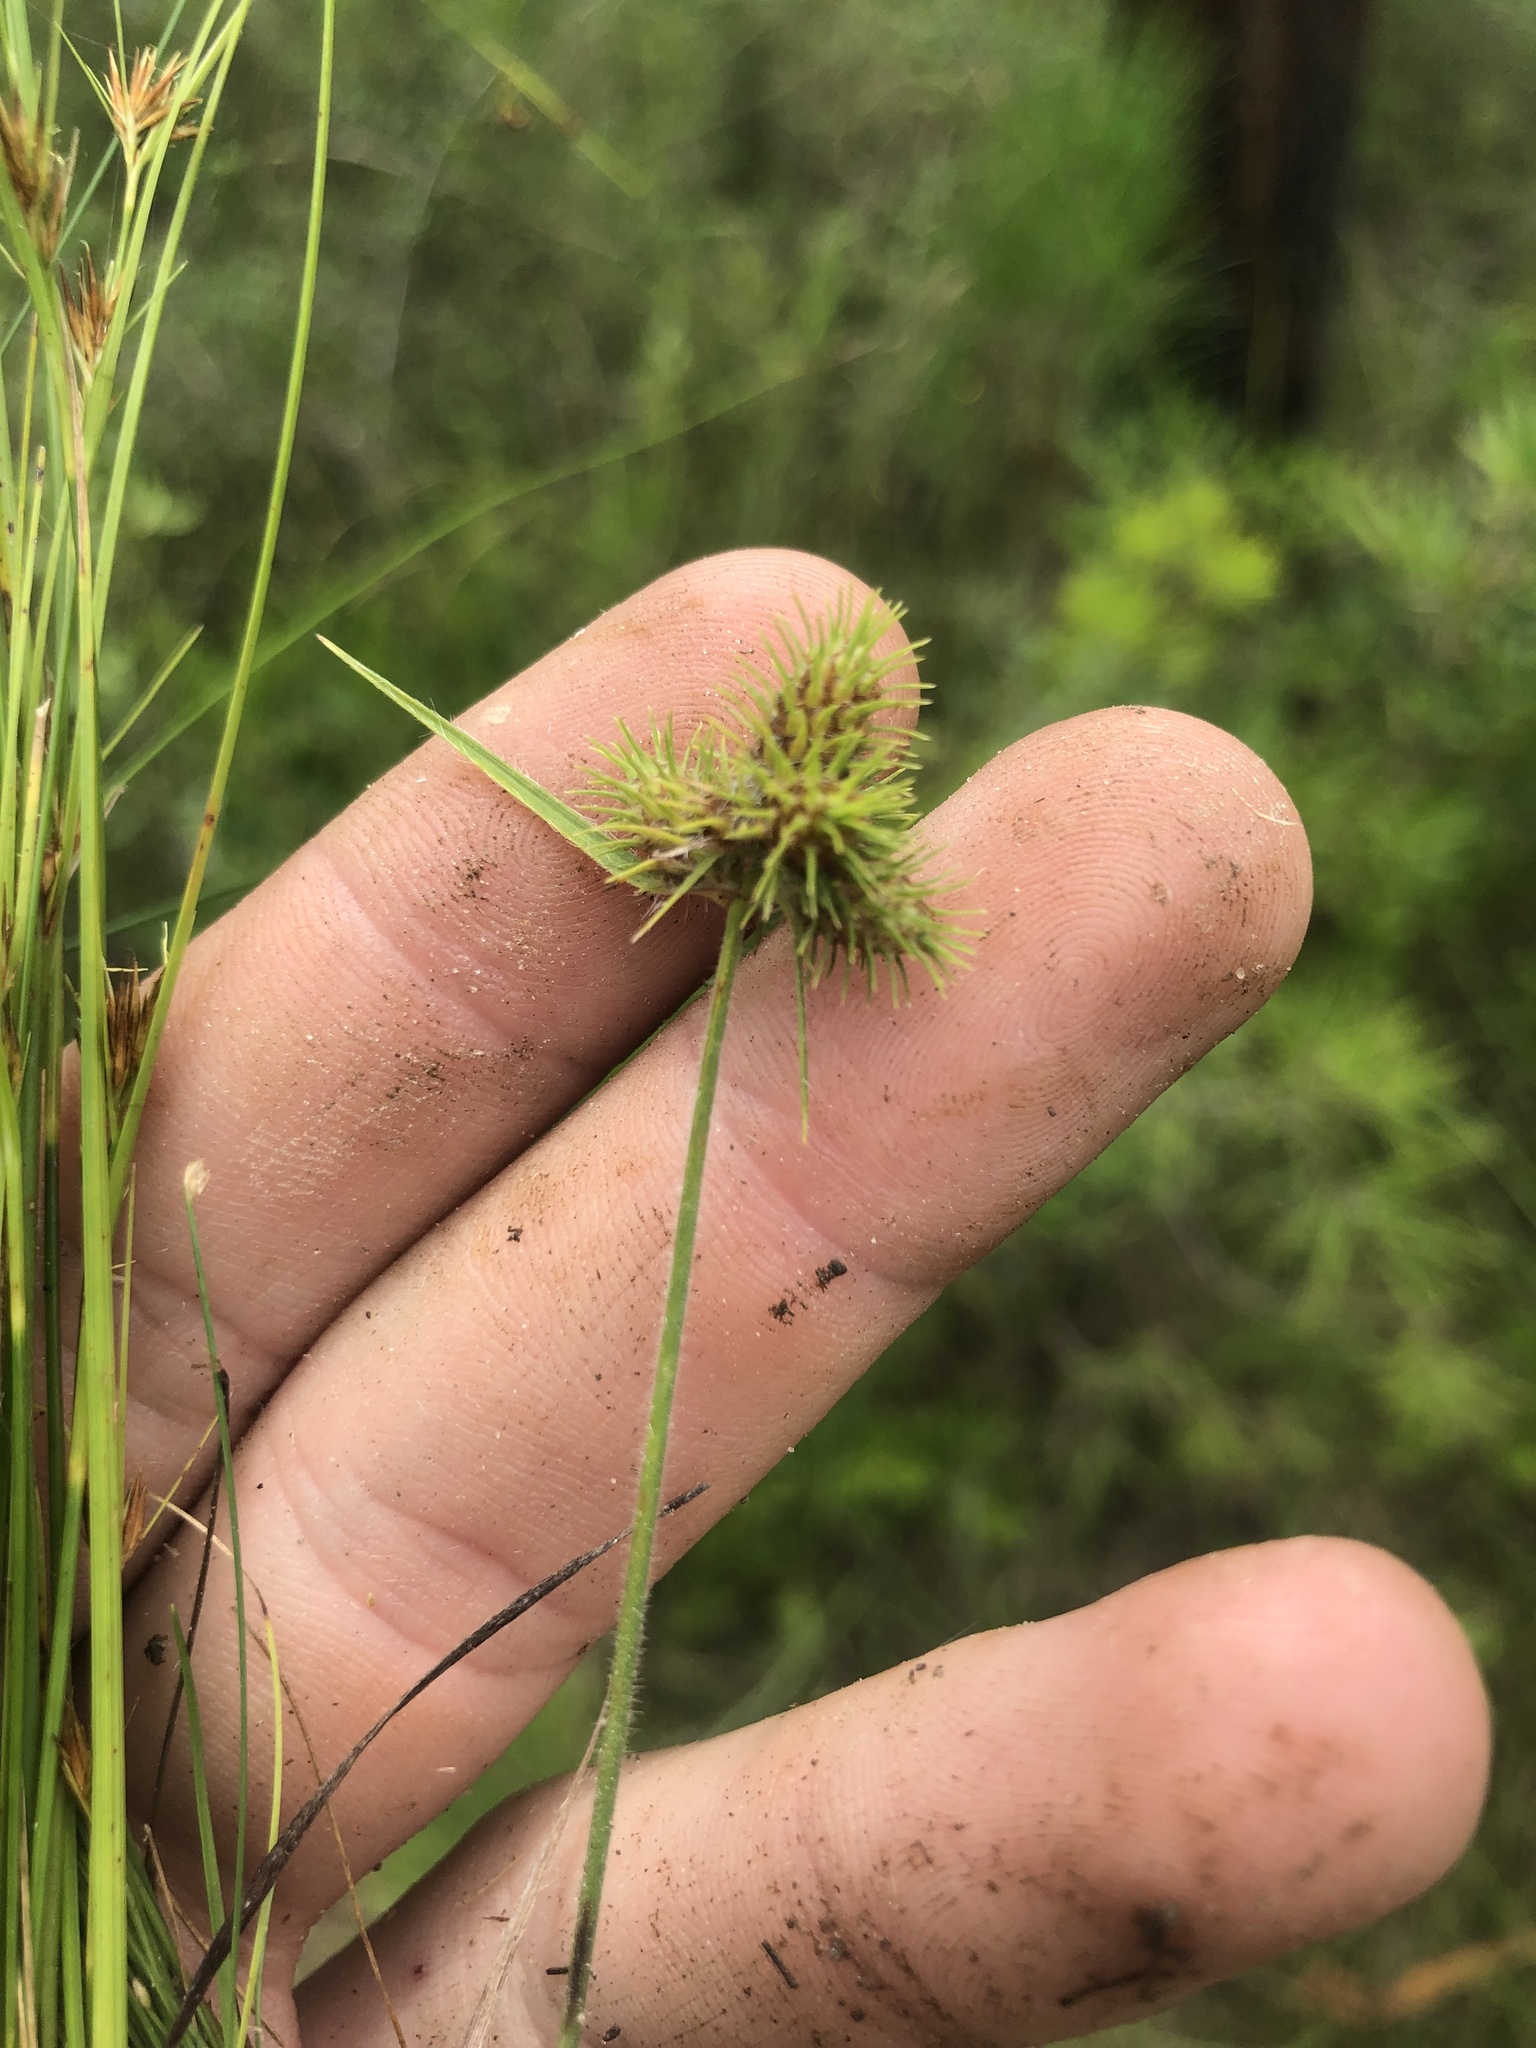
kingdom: Plantae
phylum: Tracheophyta
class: Liliopsida
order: Poales
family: Cyperaceae
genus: Fuirena
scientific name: Fuirena squarrosa
